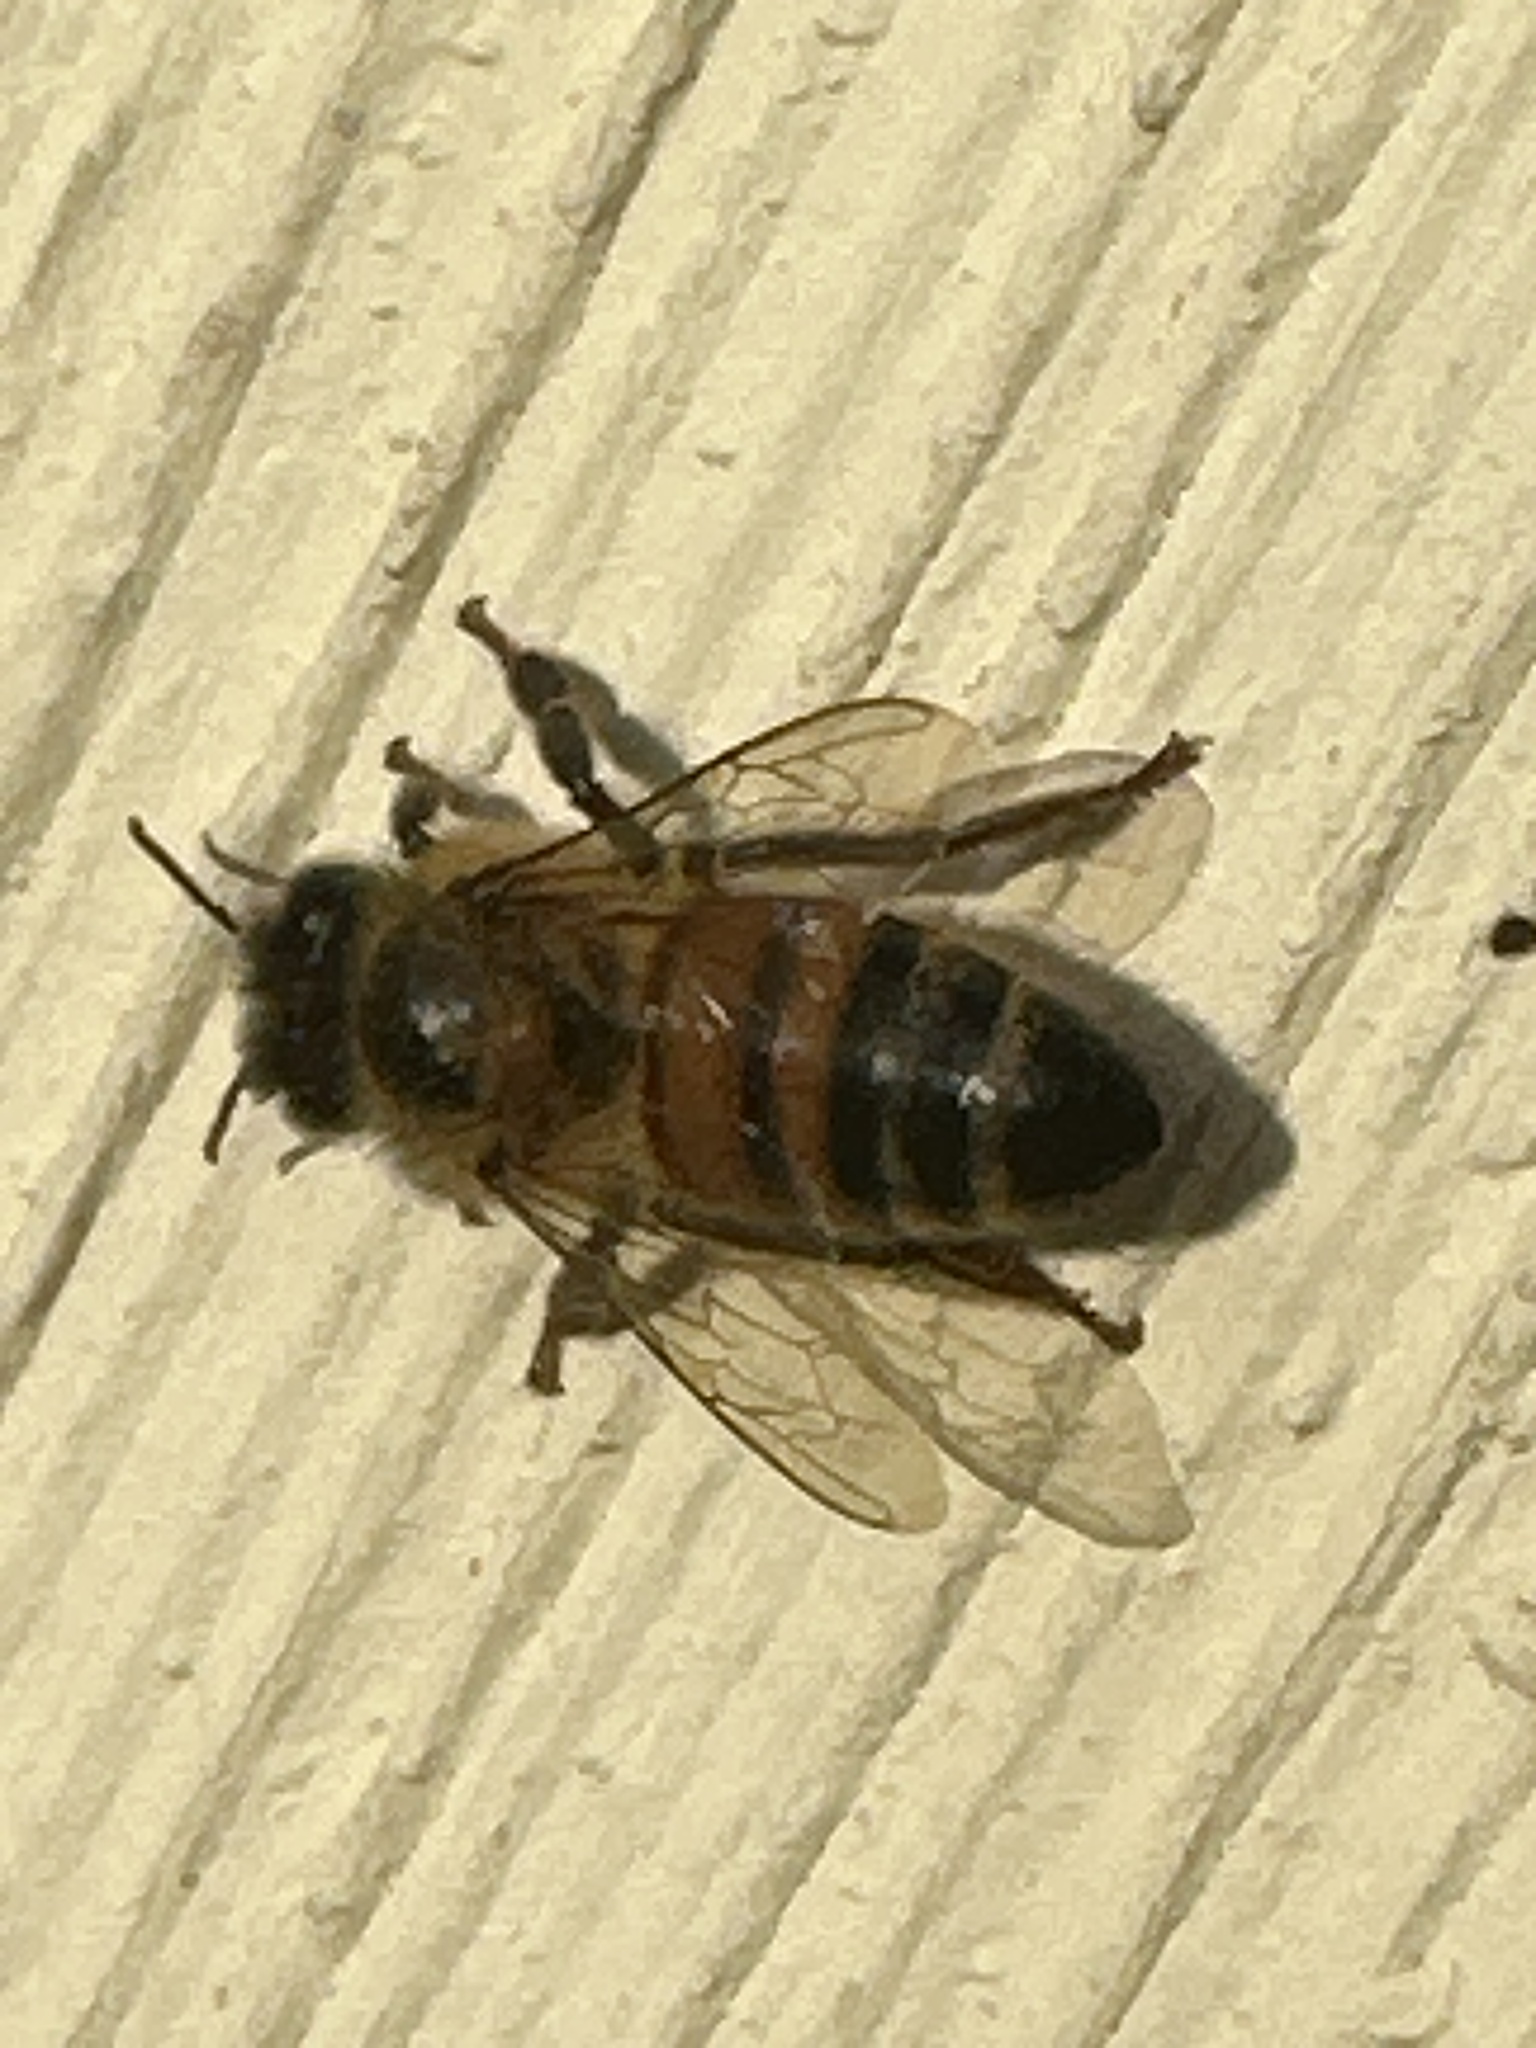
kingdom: Animalia
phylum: Arthropoda
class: Insecta
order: Hymenoptera
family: Apidae
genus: Apis
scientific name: Apis mellifera
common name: Honey bee
